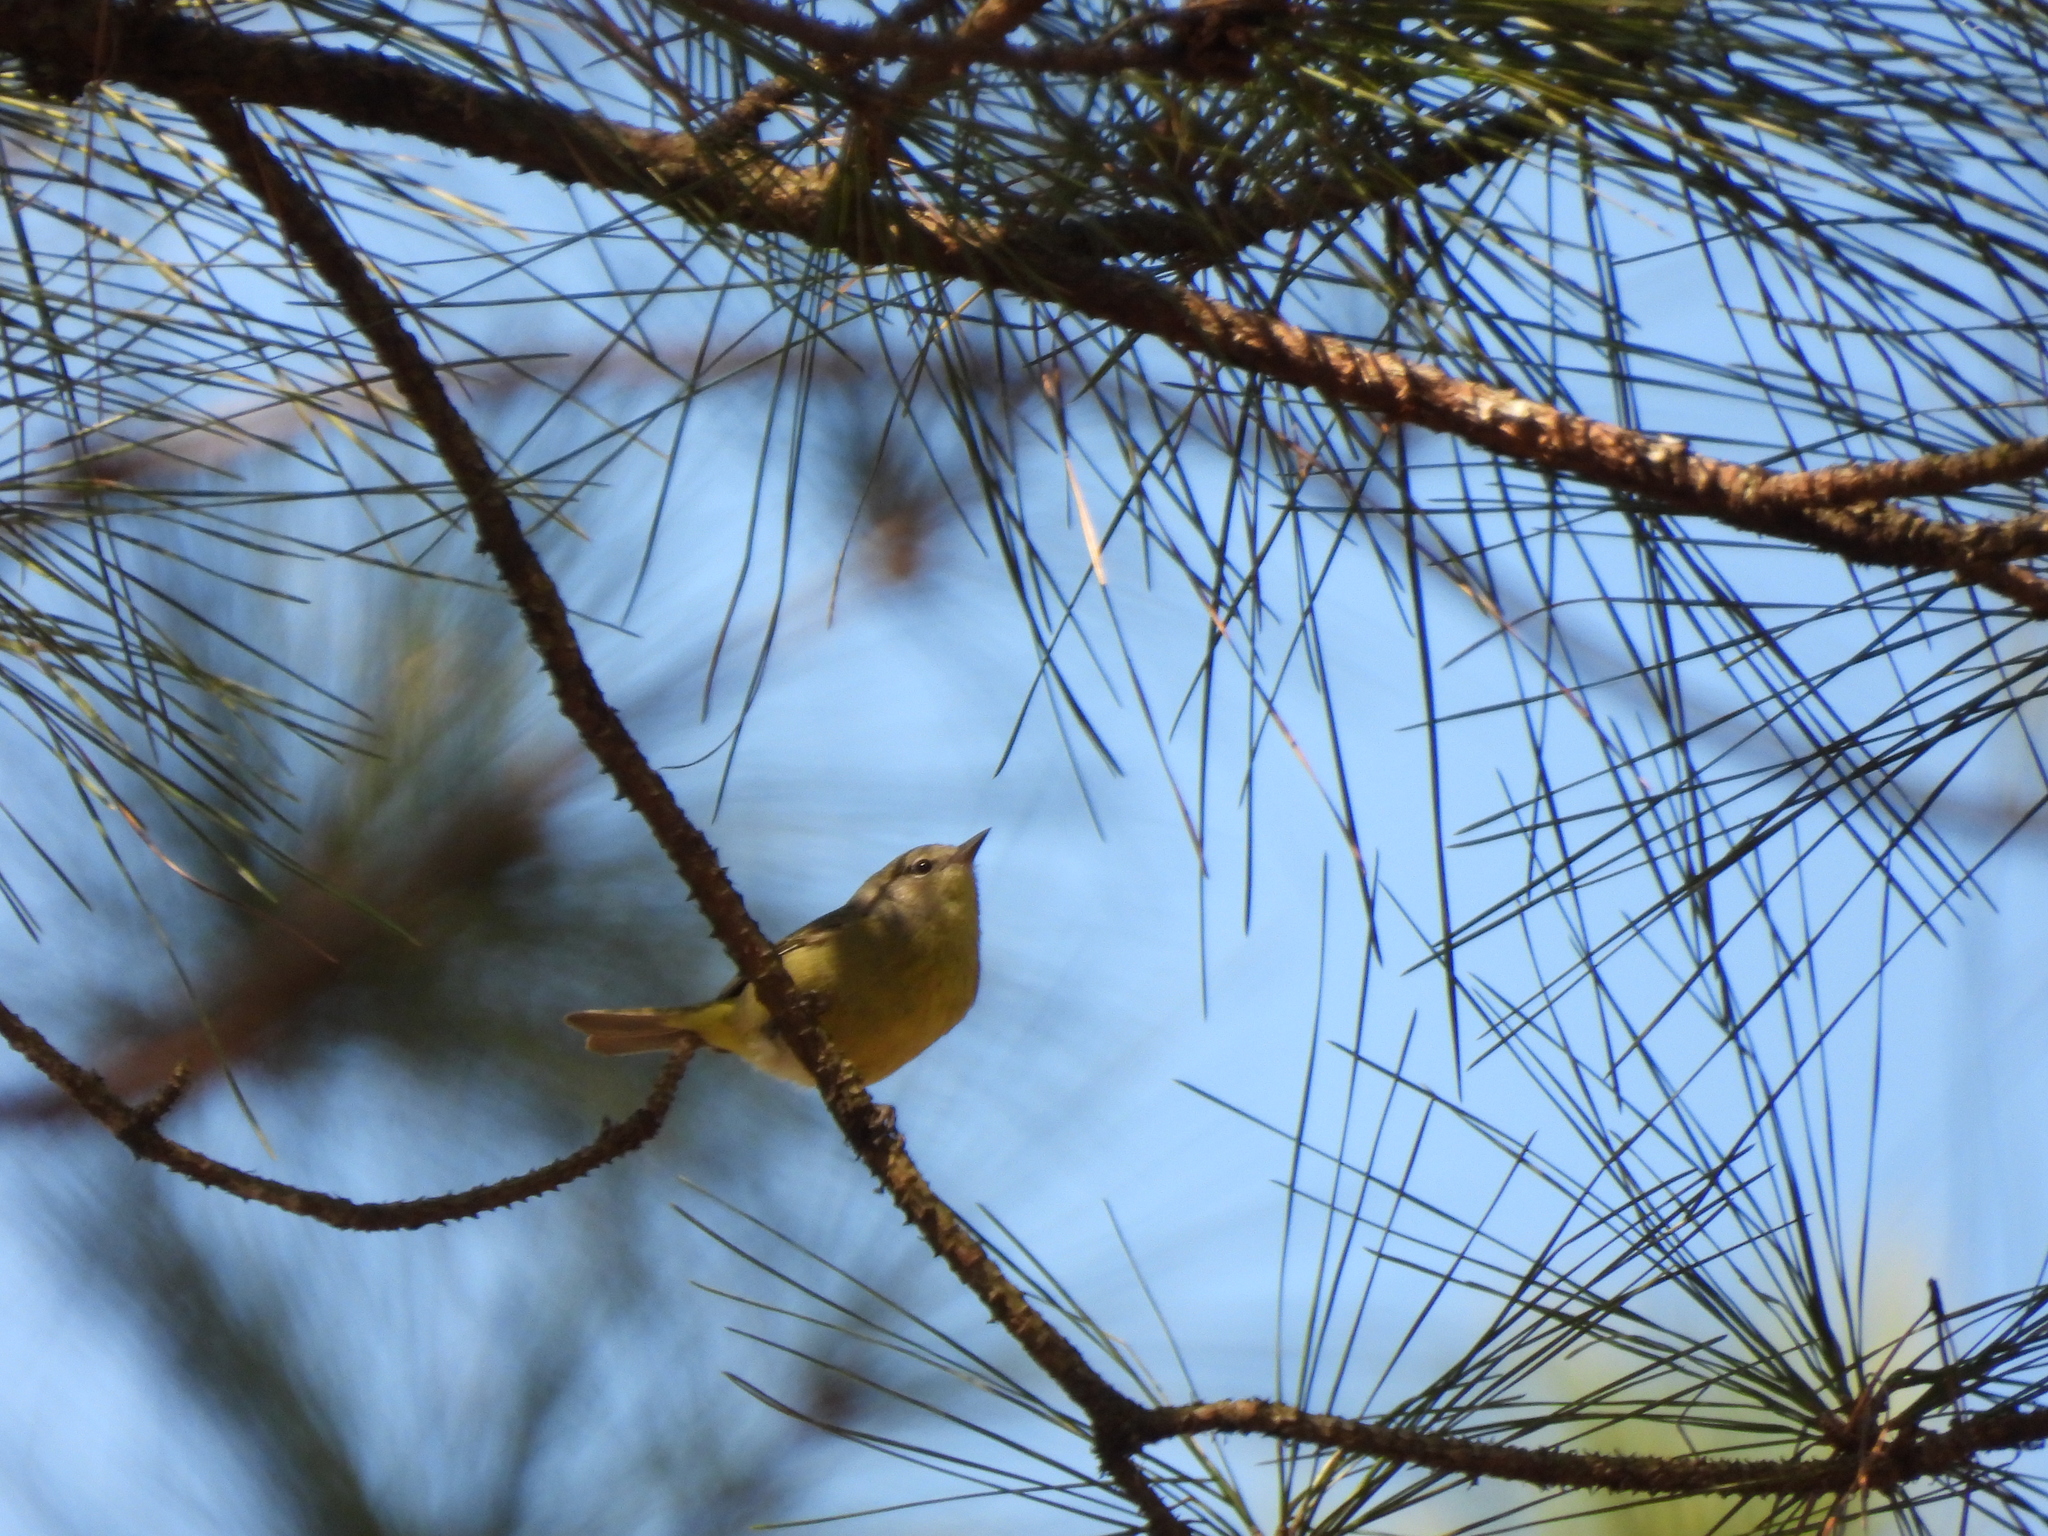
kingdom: Animalia
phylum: Chordata
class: Aves
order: Passeriformes
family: Parulidae
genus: Leiothlypis
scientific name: Leiothlypis celata
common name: Orange-crowned warbler
